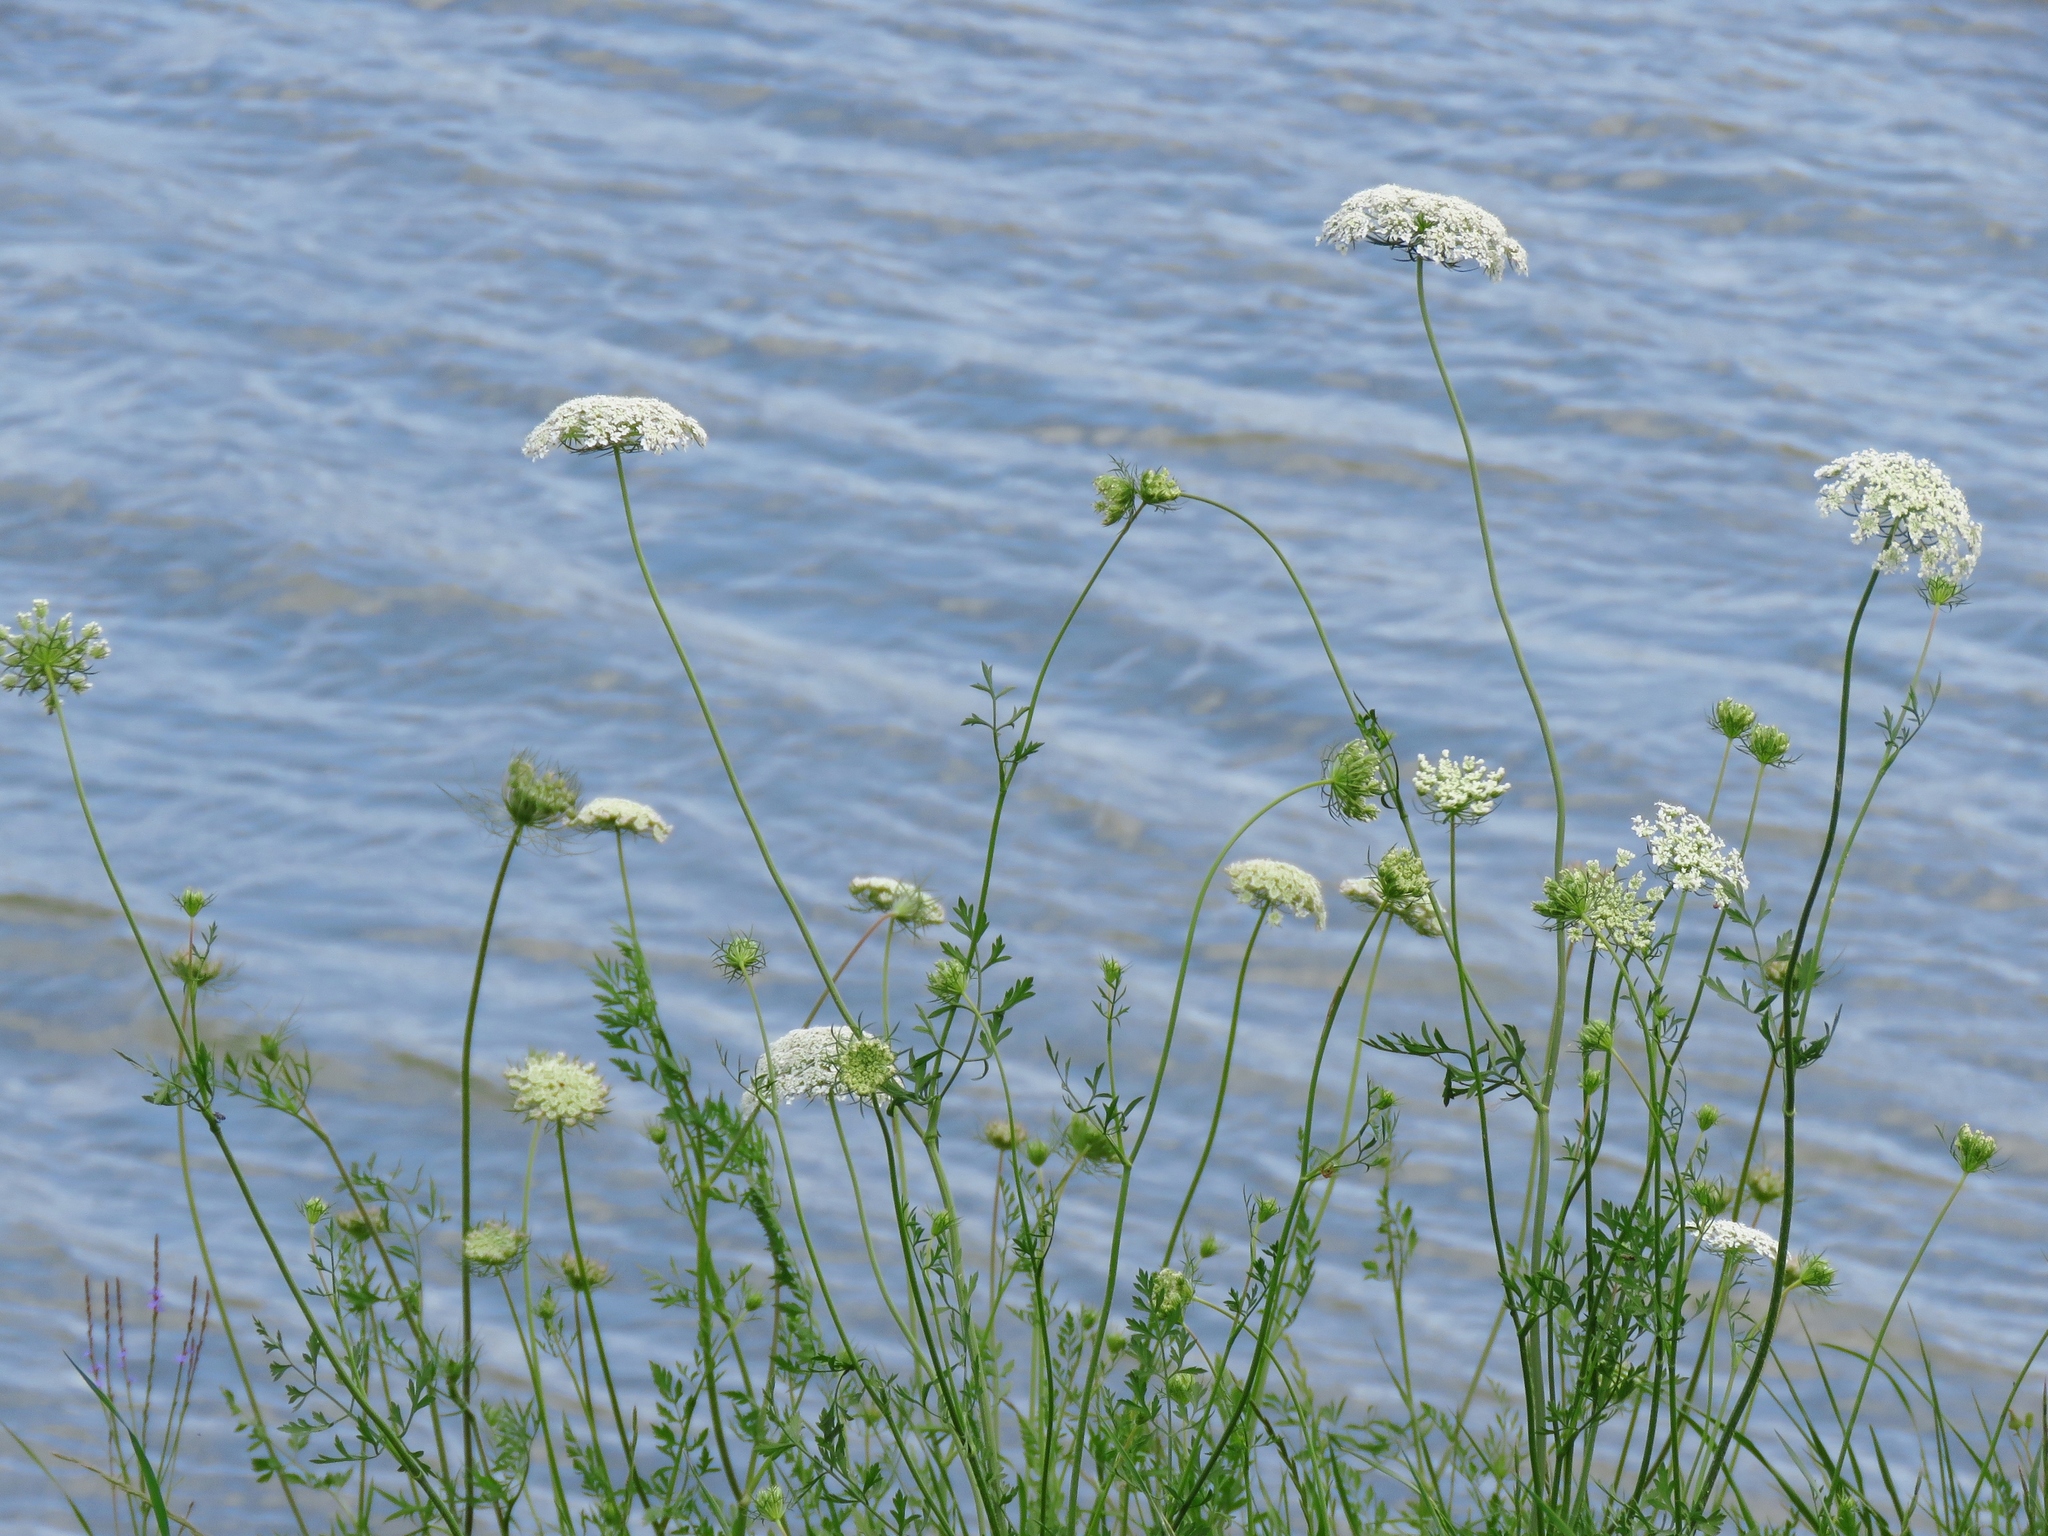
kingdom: Plantae
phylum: Tracheophyta
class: Magnoliopsida
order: Apiales
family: Apiaceae
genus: Daucus
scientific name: Daucus carota
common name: Wild carrot
